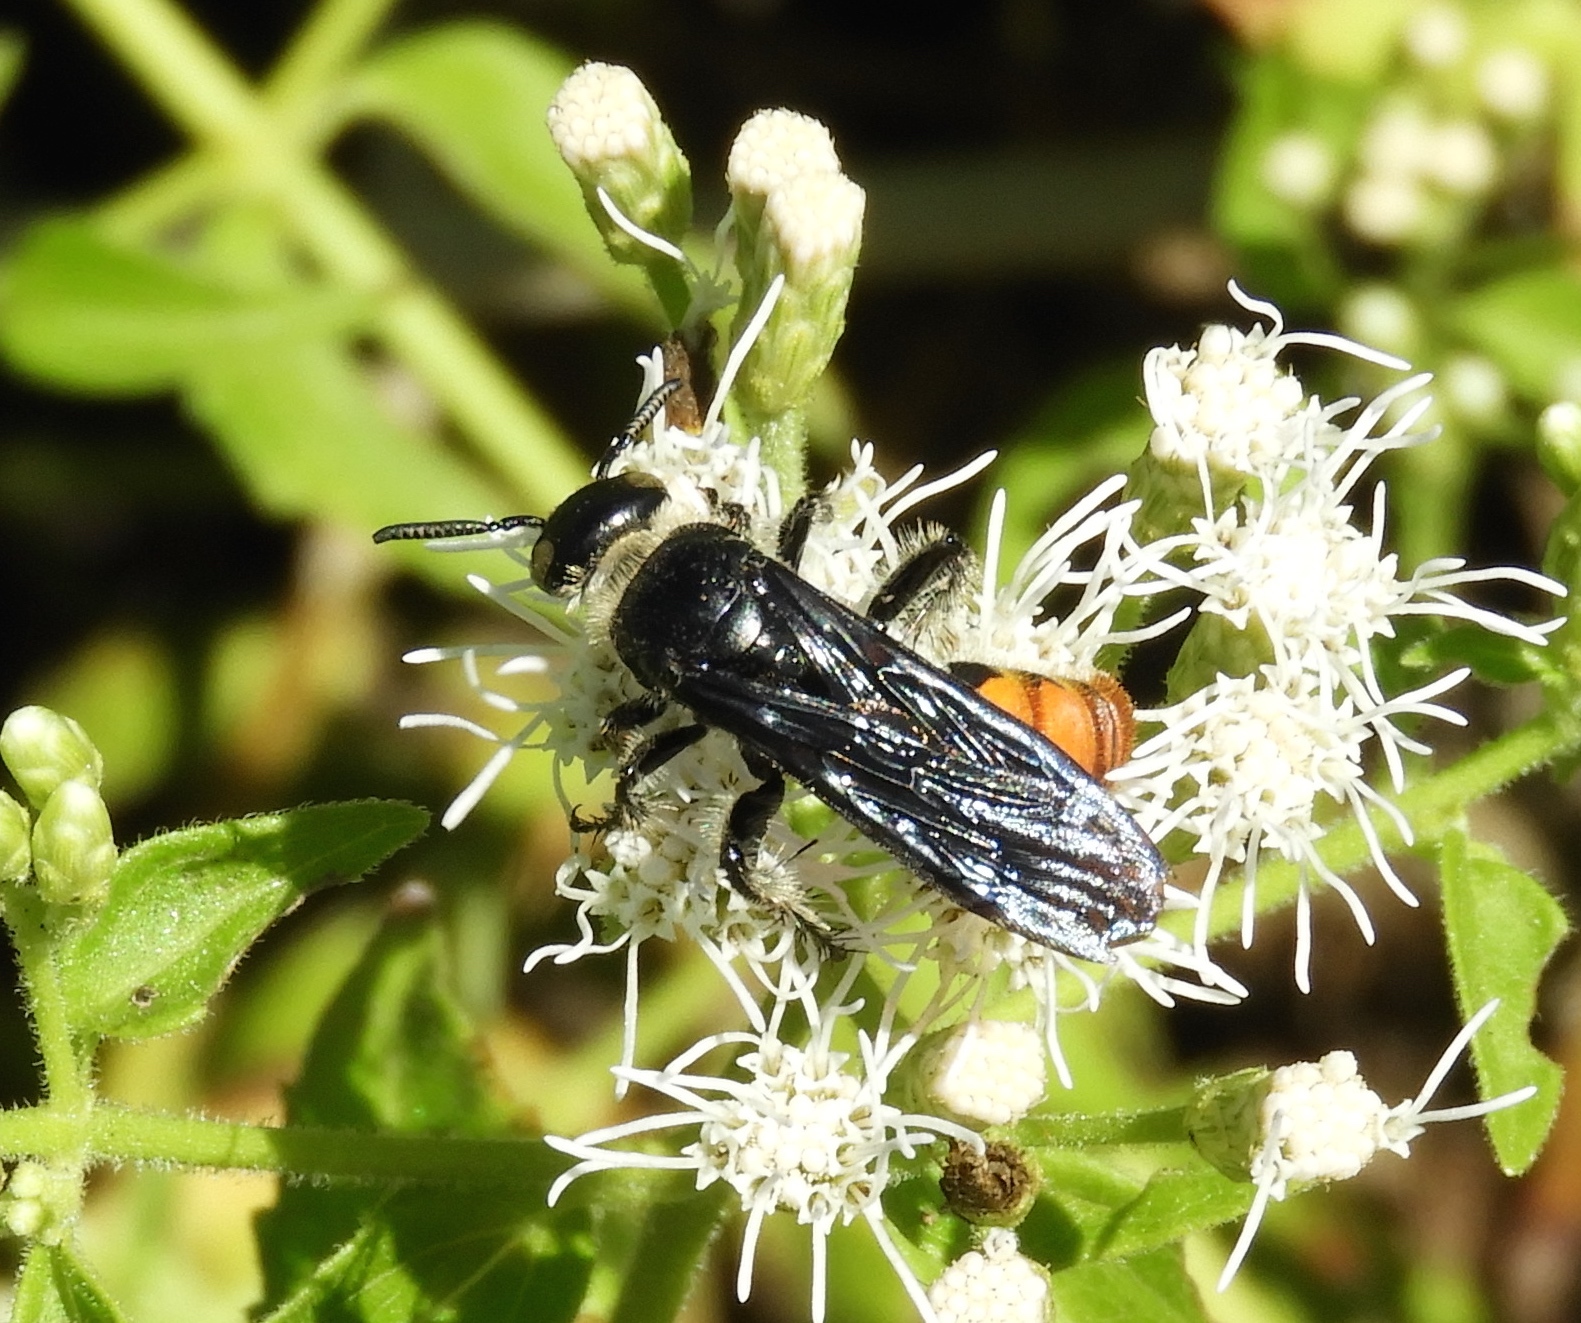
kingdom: Animalia
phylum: Arthropoda
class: Insecta
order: Hymenoptera
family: Scoliidae
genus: Dielis
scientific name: Dielis tolteca
